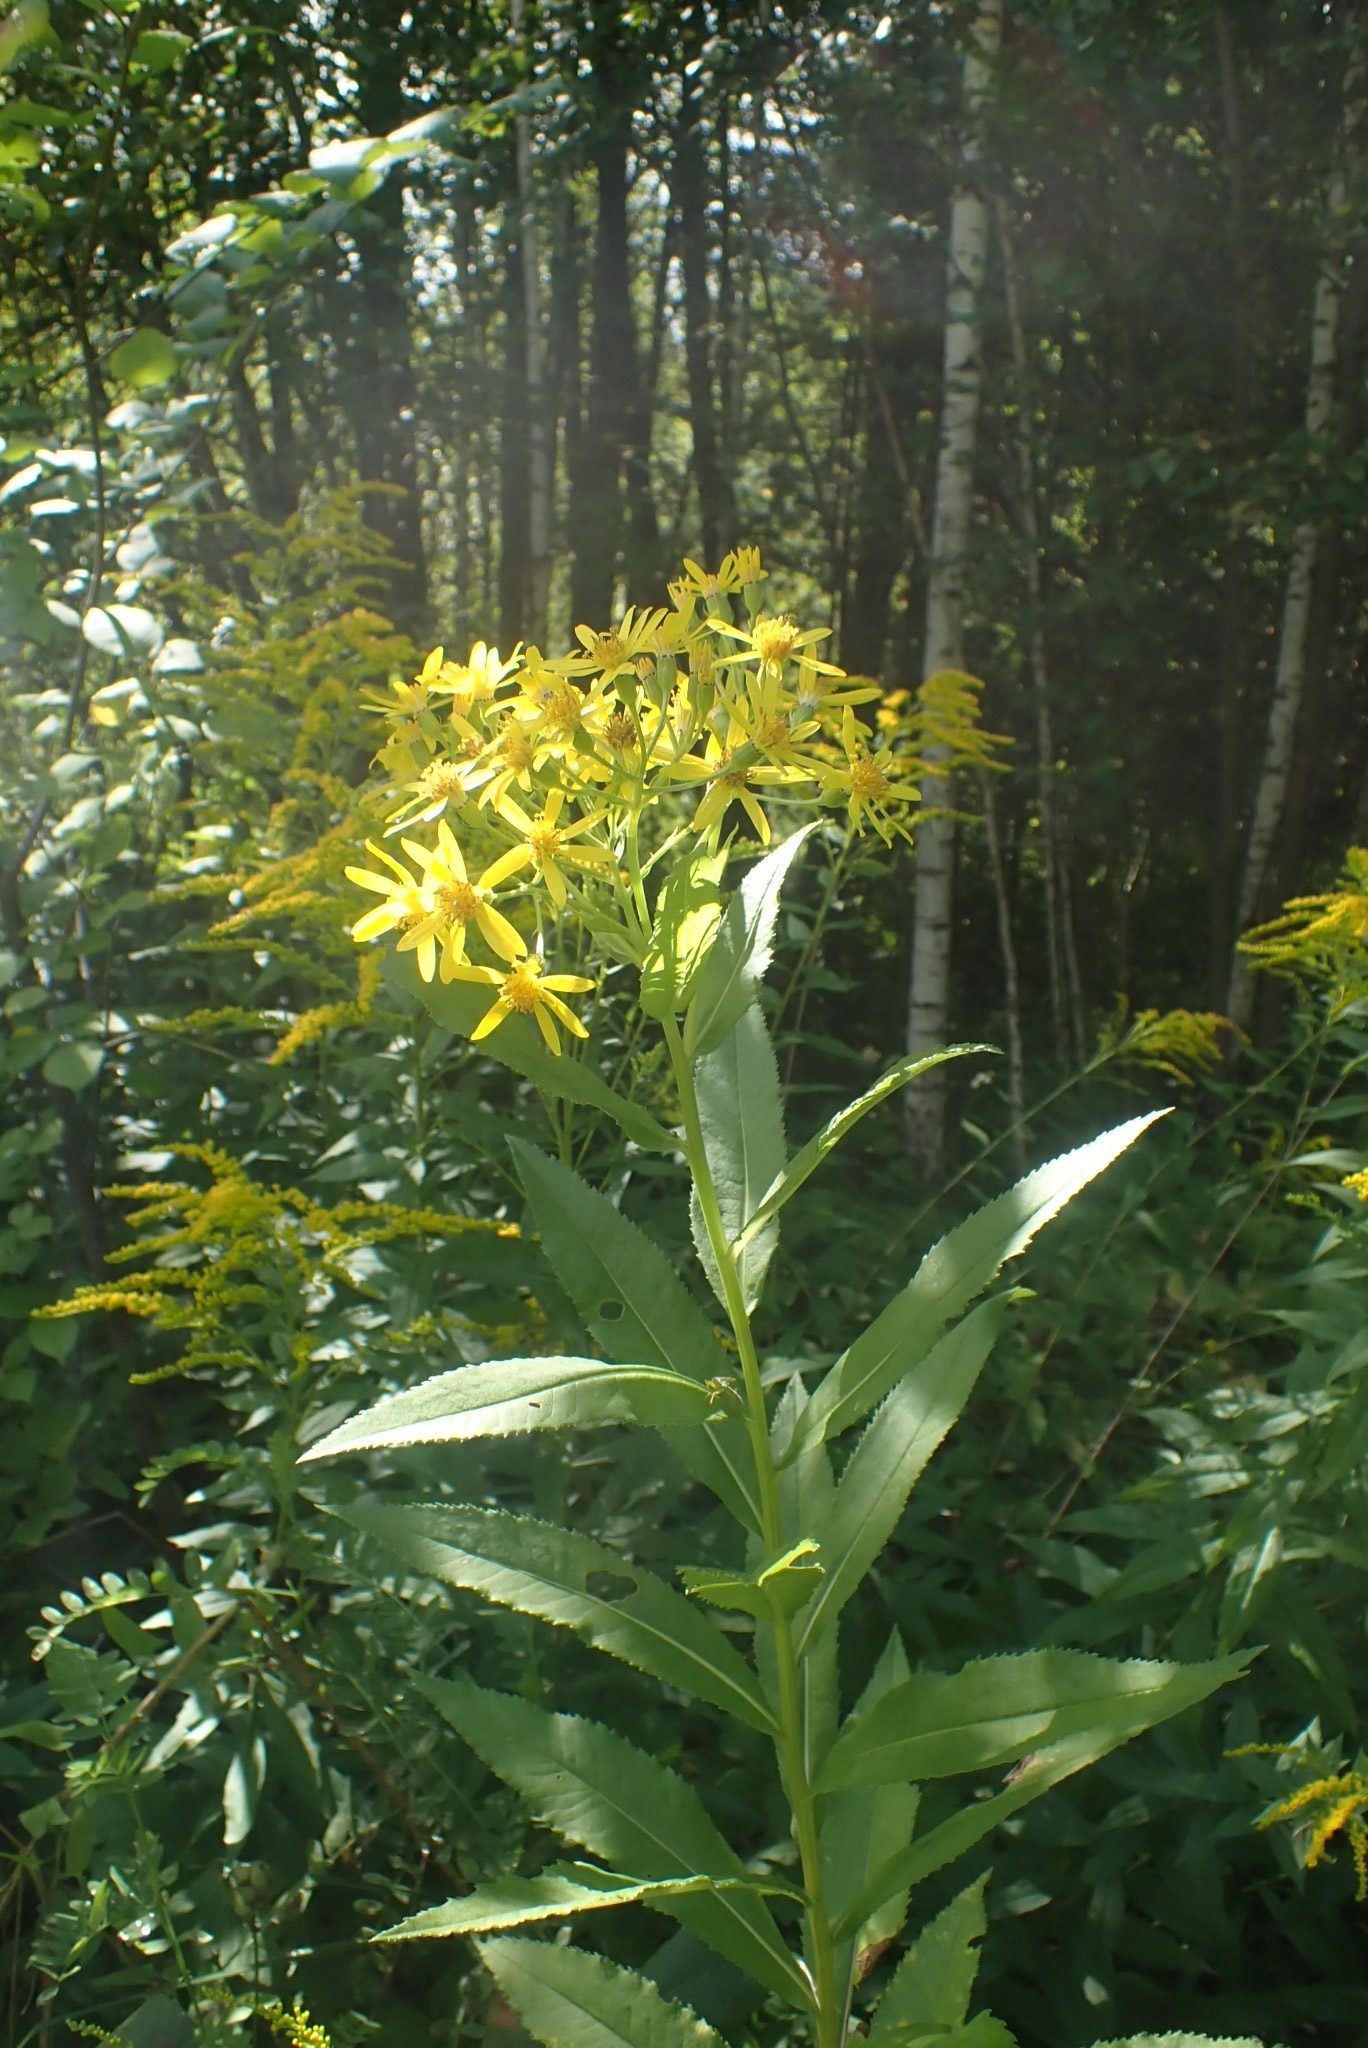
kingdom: Plantae
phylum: Tracheophyta
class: Magnoliopsida
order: Asterales
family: Asteraceae
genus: Senecio
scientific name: Senecio sarracenicus
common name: Broad-leaved ragwort
